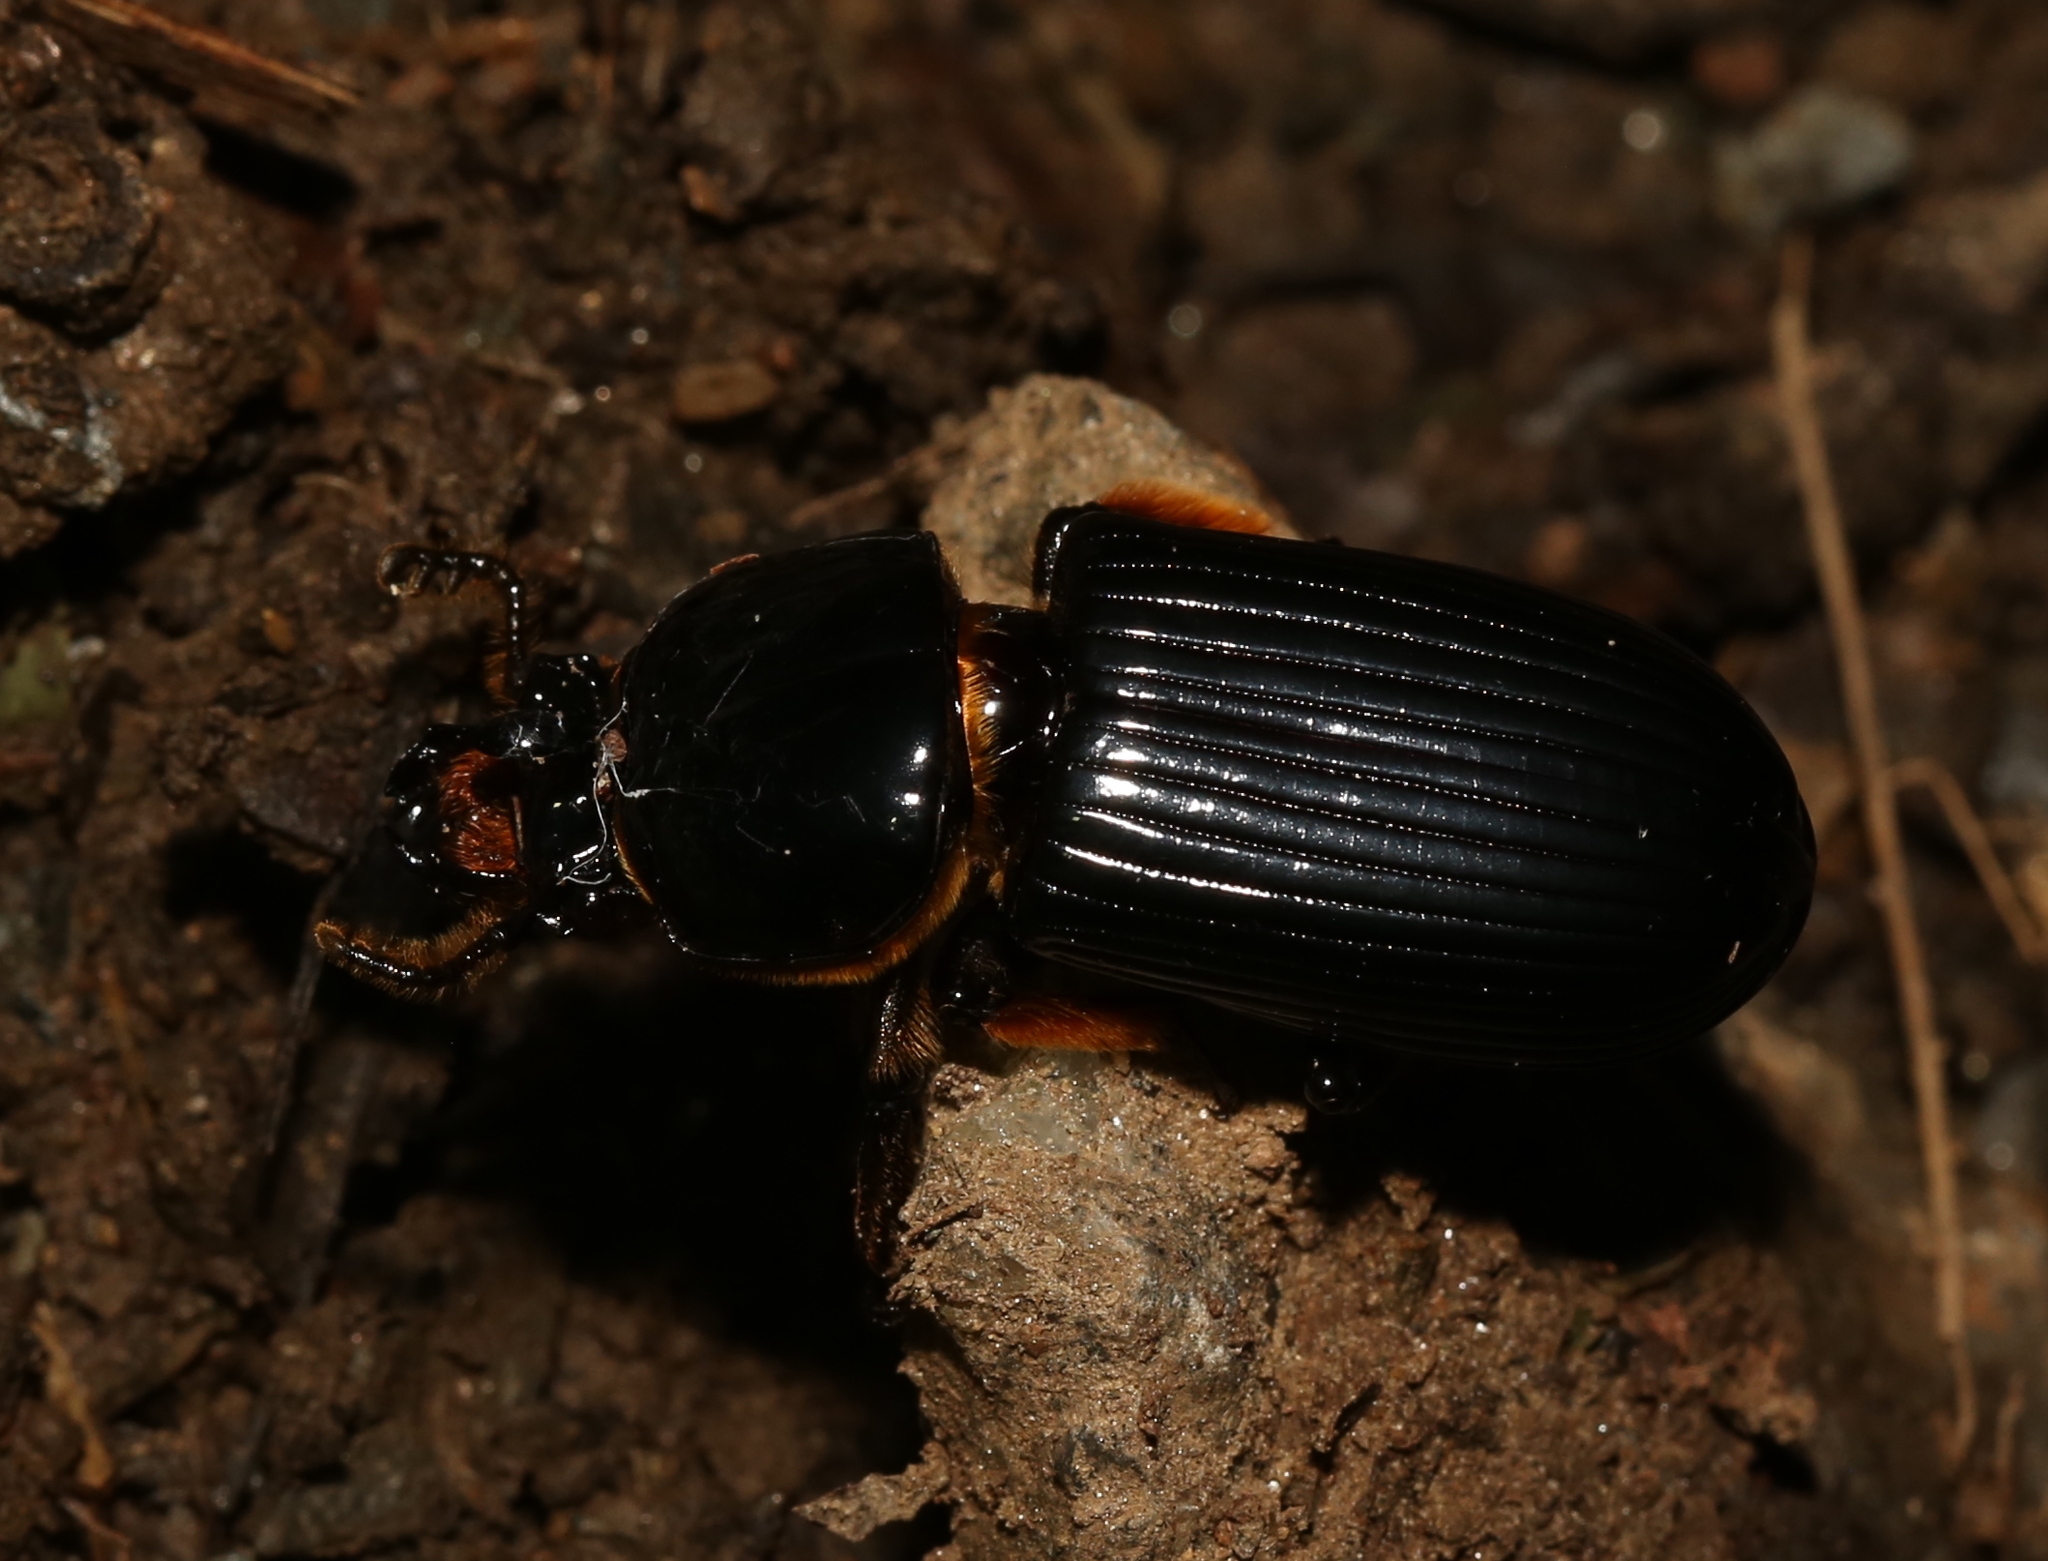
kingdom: Animalia
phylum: Arthropoda
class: Insecta
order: Coleoptera
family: Passalidae
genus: Odontotaenius
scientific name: Odontotaenius disjunctus
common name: Patent leather beetle
